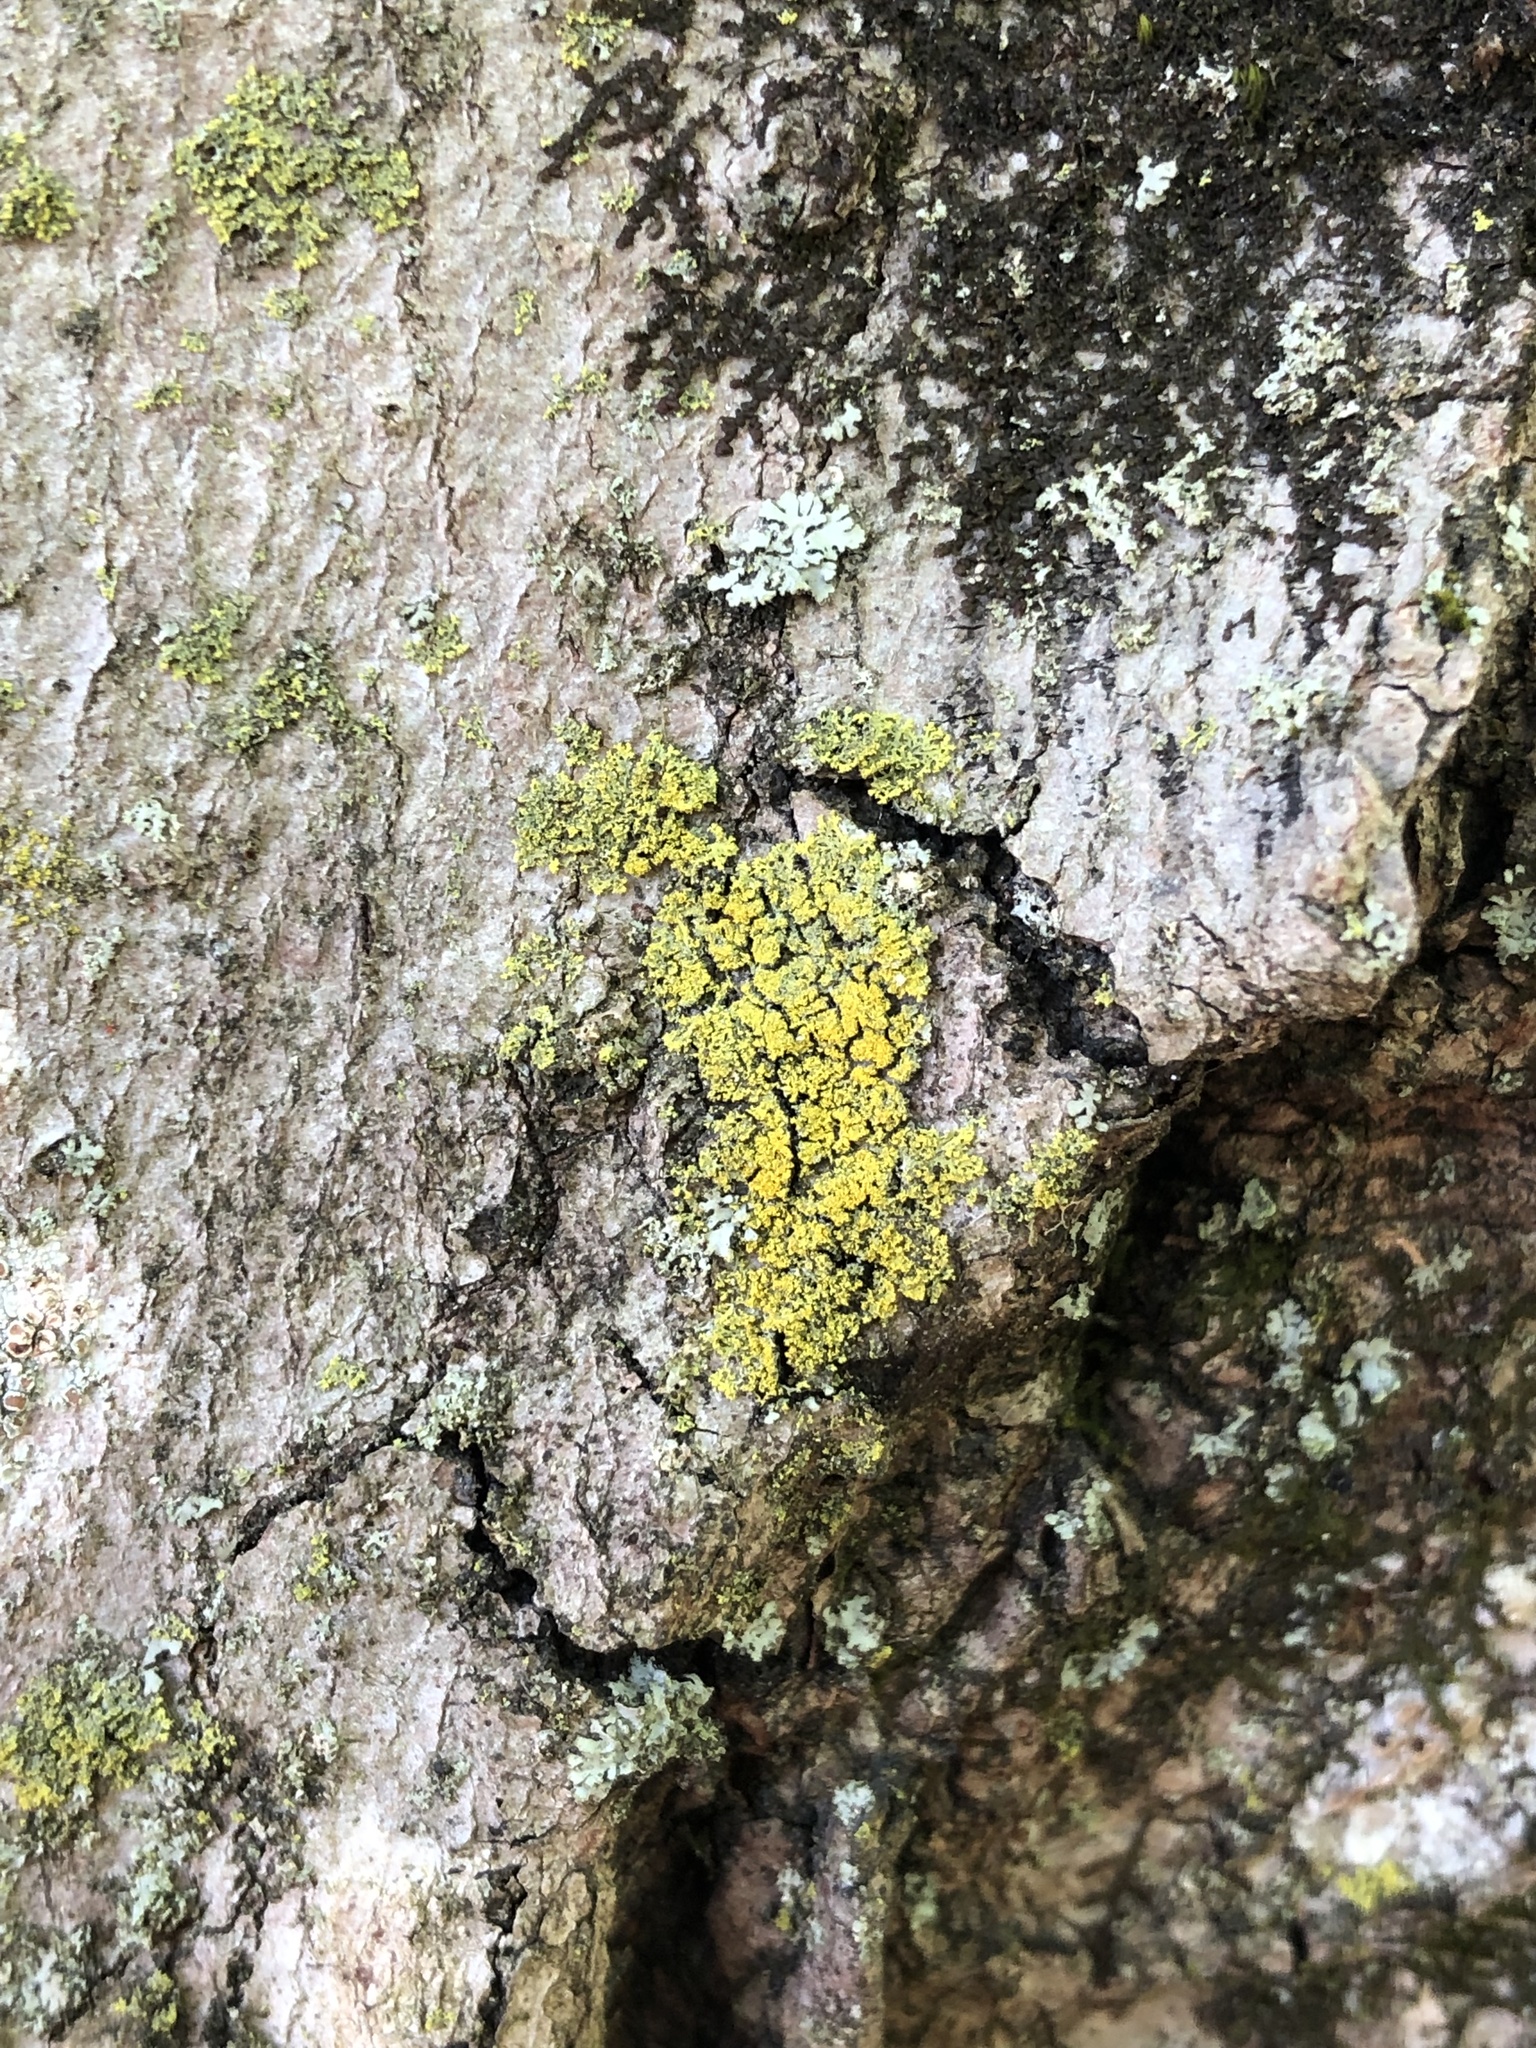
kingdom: Fungi
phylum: Ascomycota
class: Candelariomycetes
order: Candelariales
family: Candelariaceae
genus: Candelaria
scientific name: Candelaria concolor
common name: Candleflame lichen
